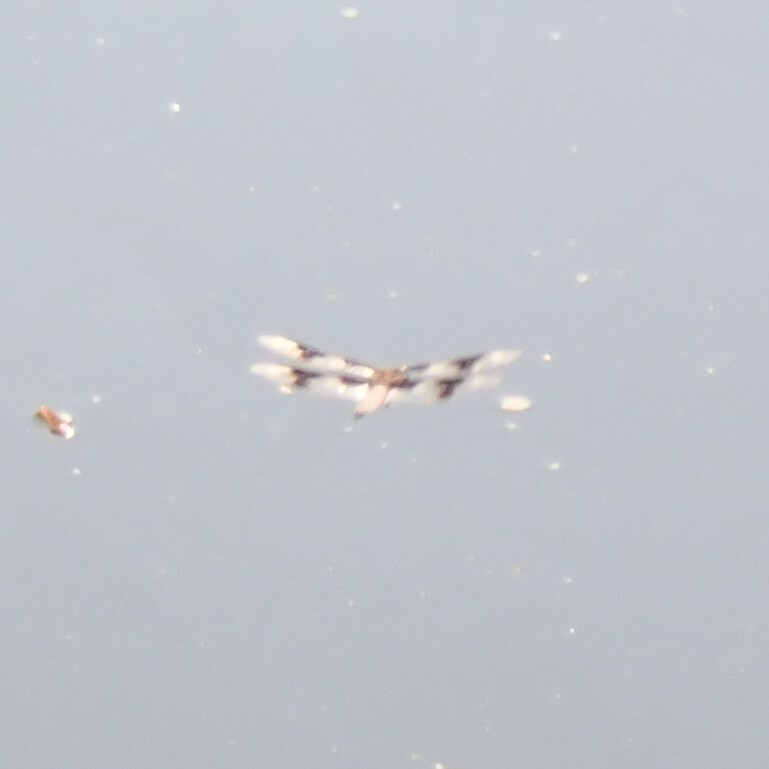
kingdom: Animalia
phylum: Arthropoda
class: Insecta
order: Odonata
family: Libellulidae
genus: Libellula
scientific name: Libellula forensis
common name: Eight-spotted skimmer
